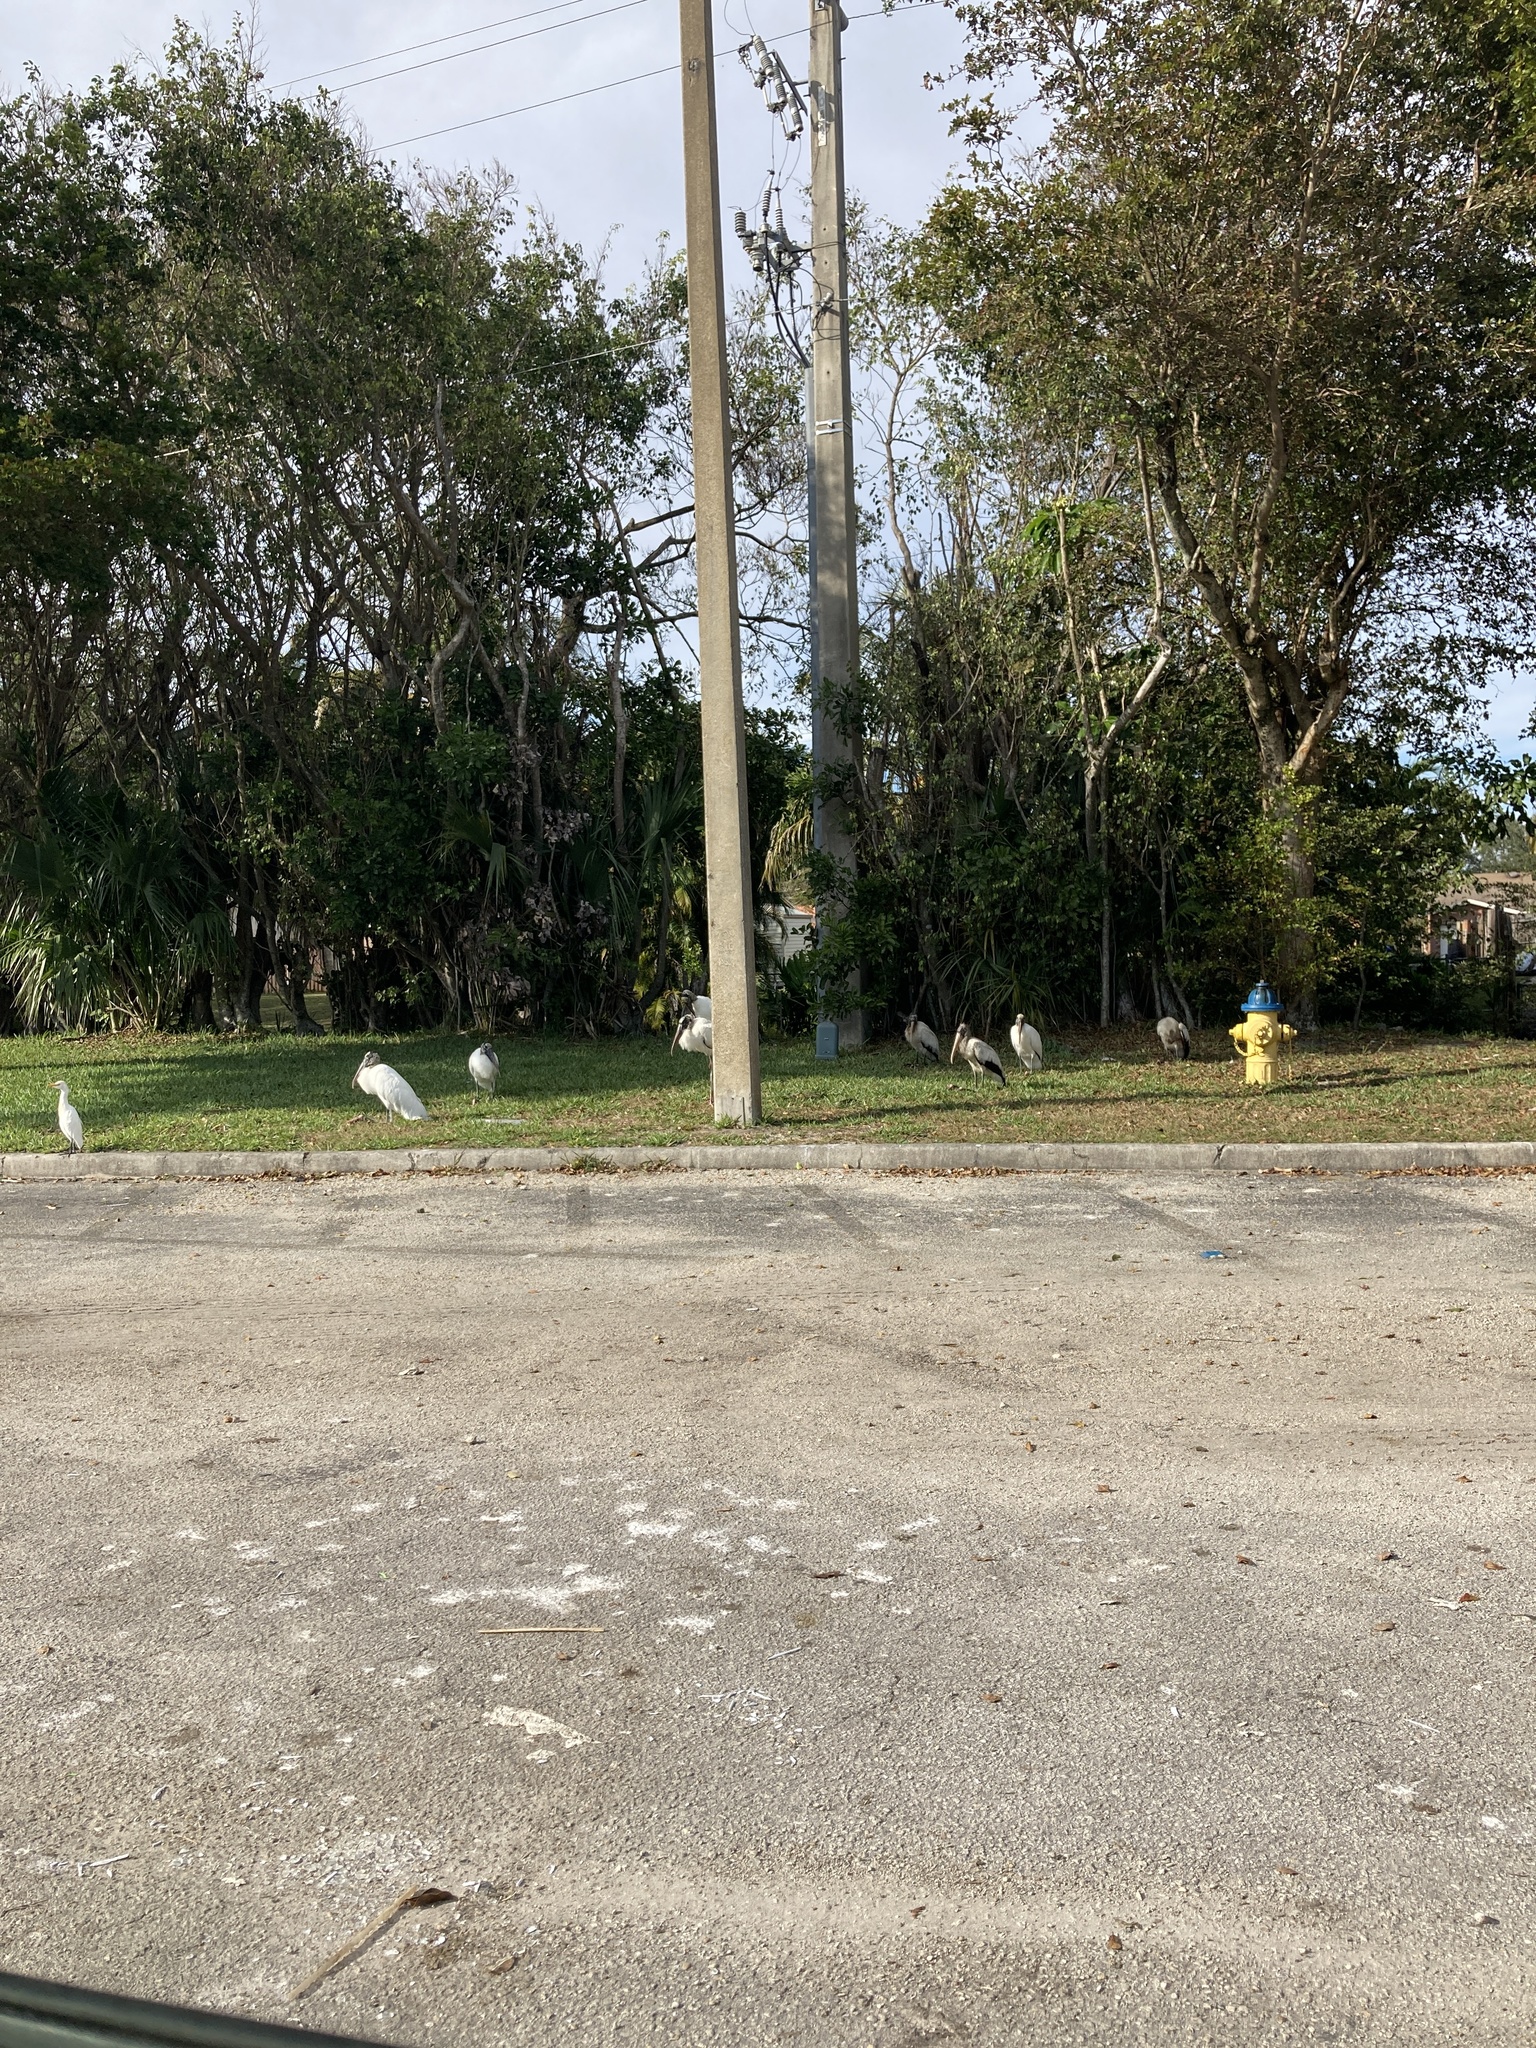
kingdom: Animalia
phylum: Chordata
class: Aves
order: Ciconiiformes
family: Ciconiidae
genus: Mycteria
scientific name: Mycteria americana
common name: Wood stork
